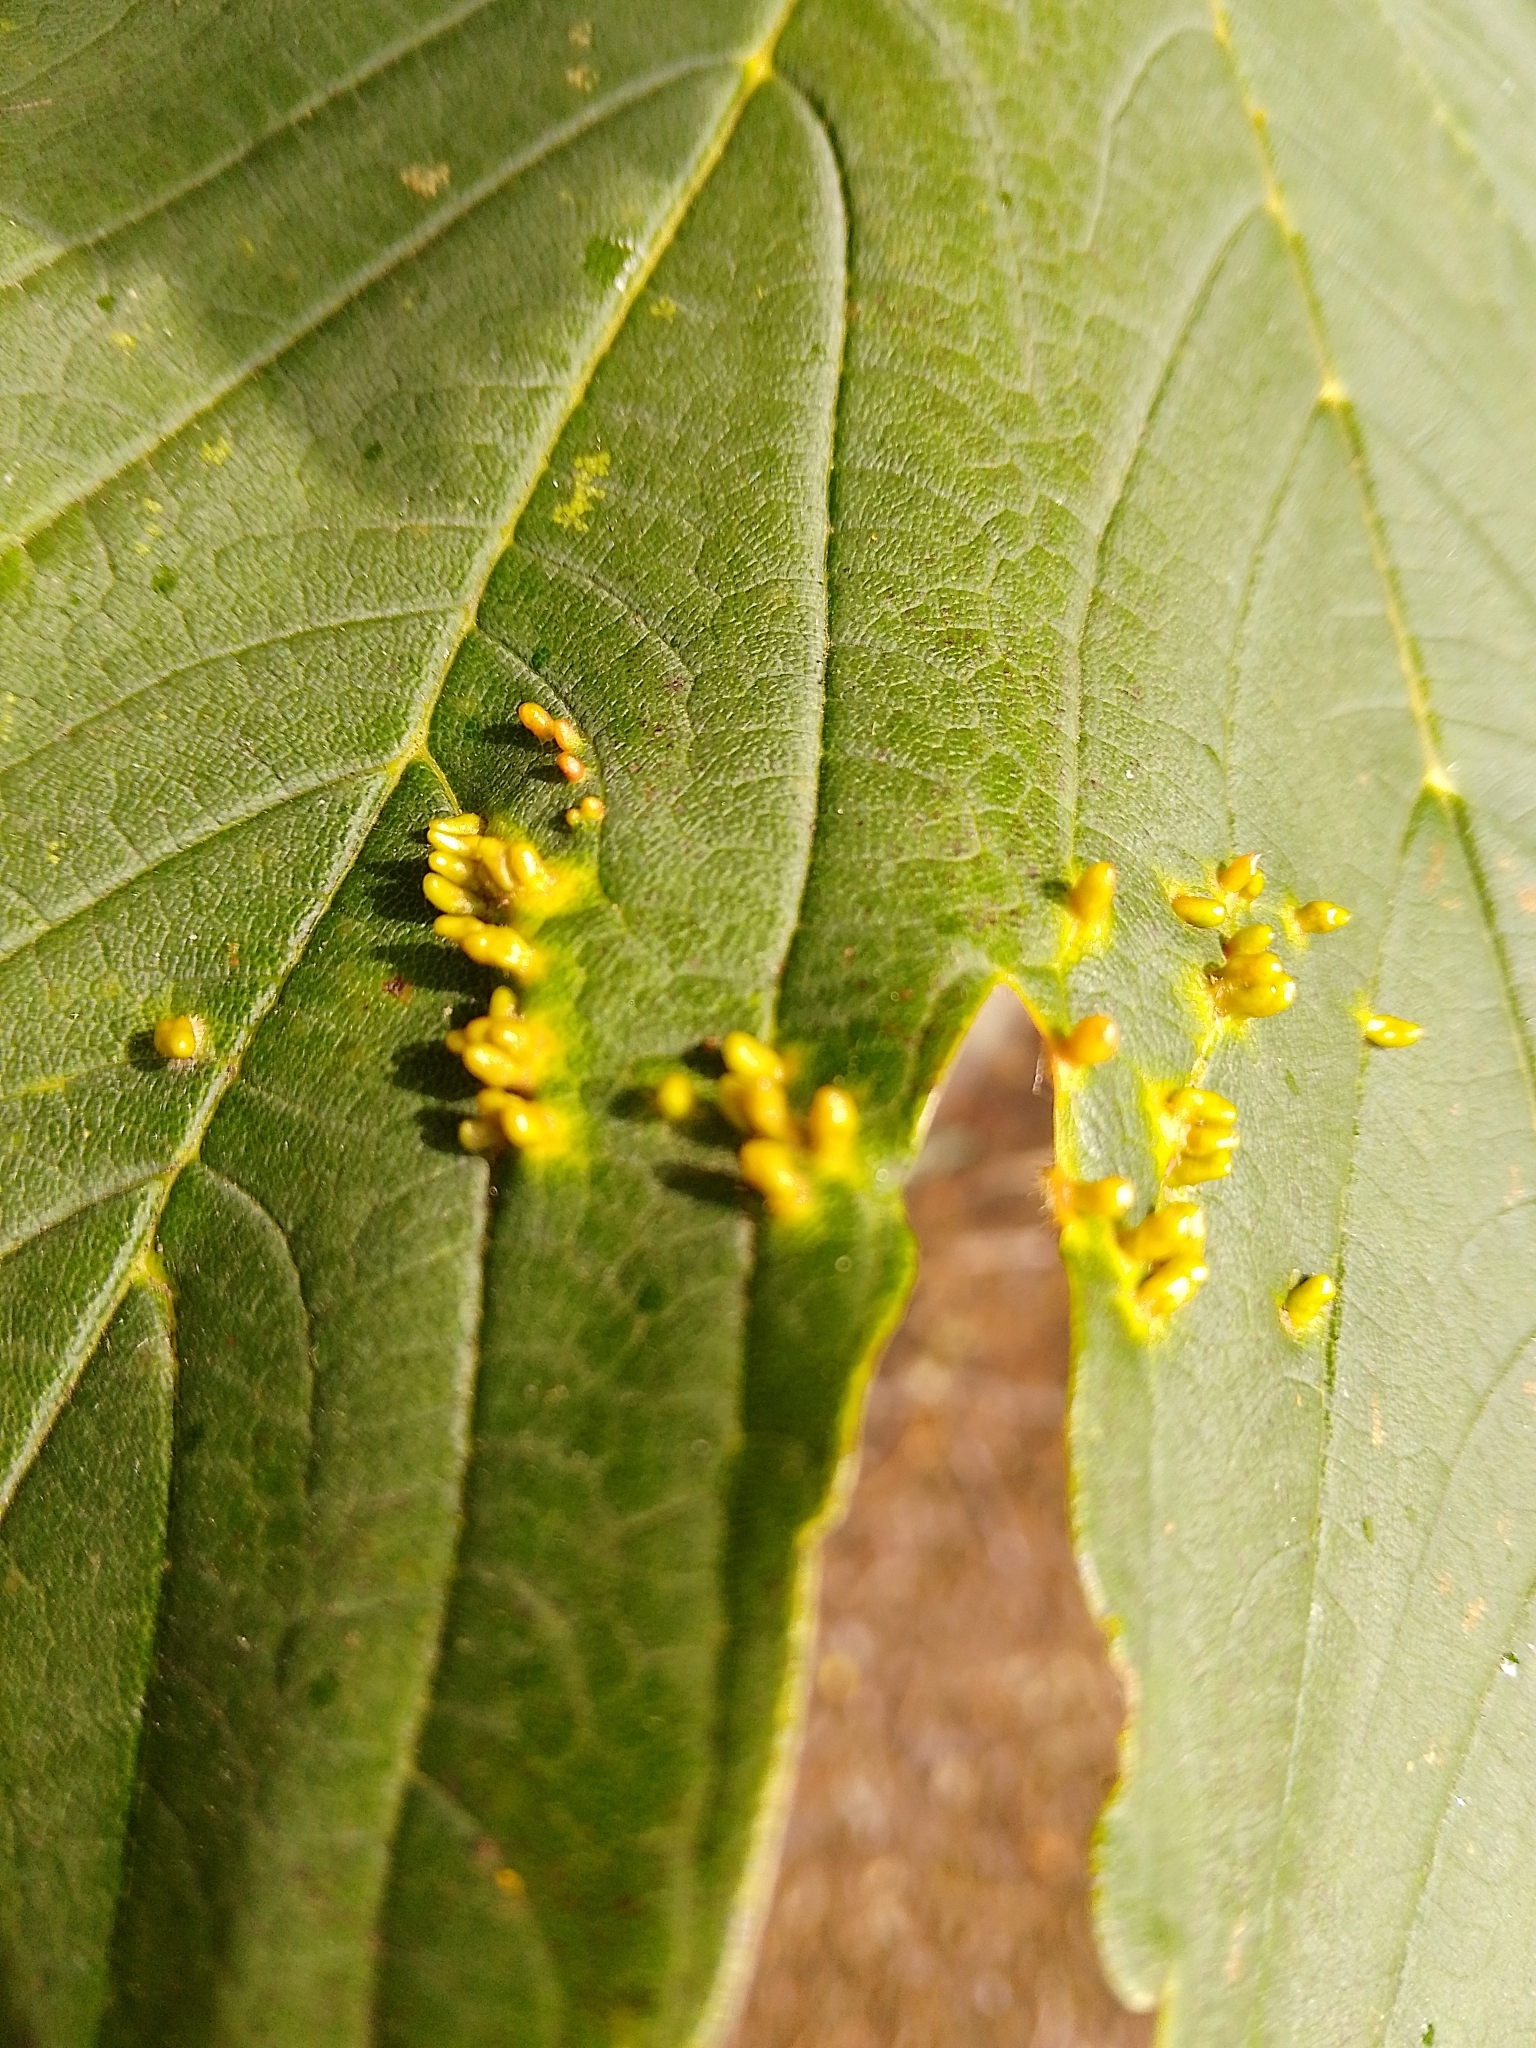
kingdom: Animalia
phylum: Arthropoda
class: Arachnida
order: Trombidiformes
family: Eriophyidae
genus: Aceria
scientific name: Aceria cephaloneus
